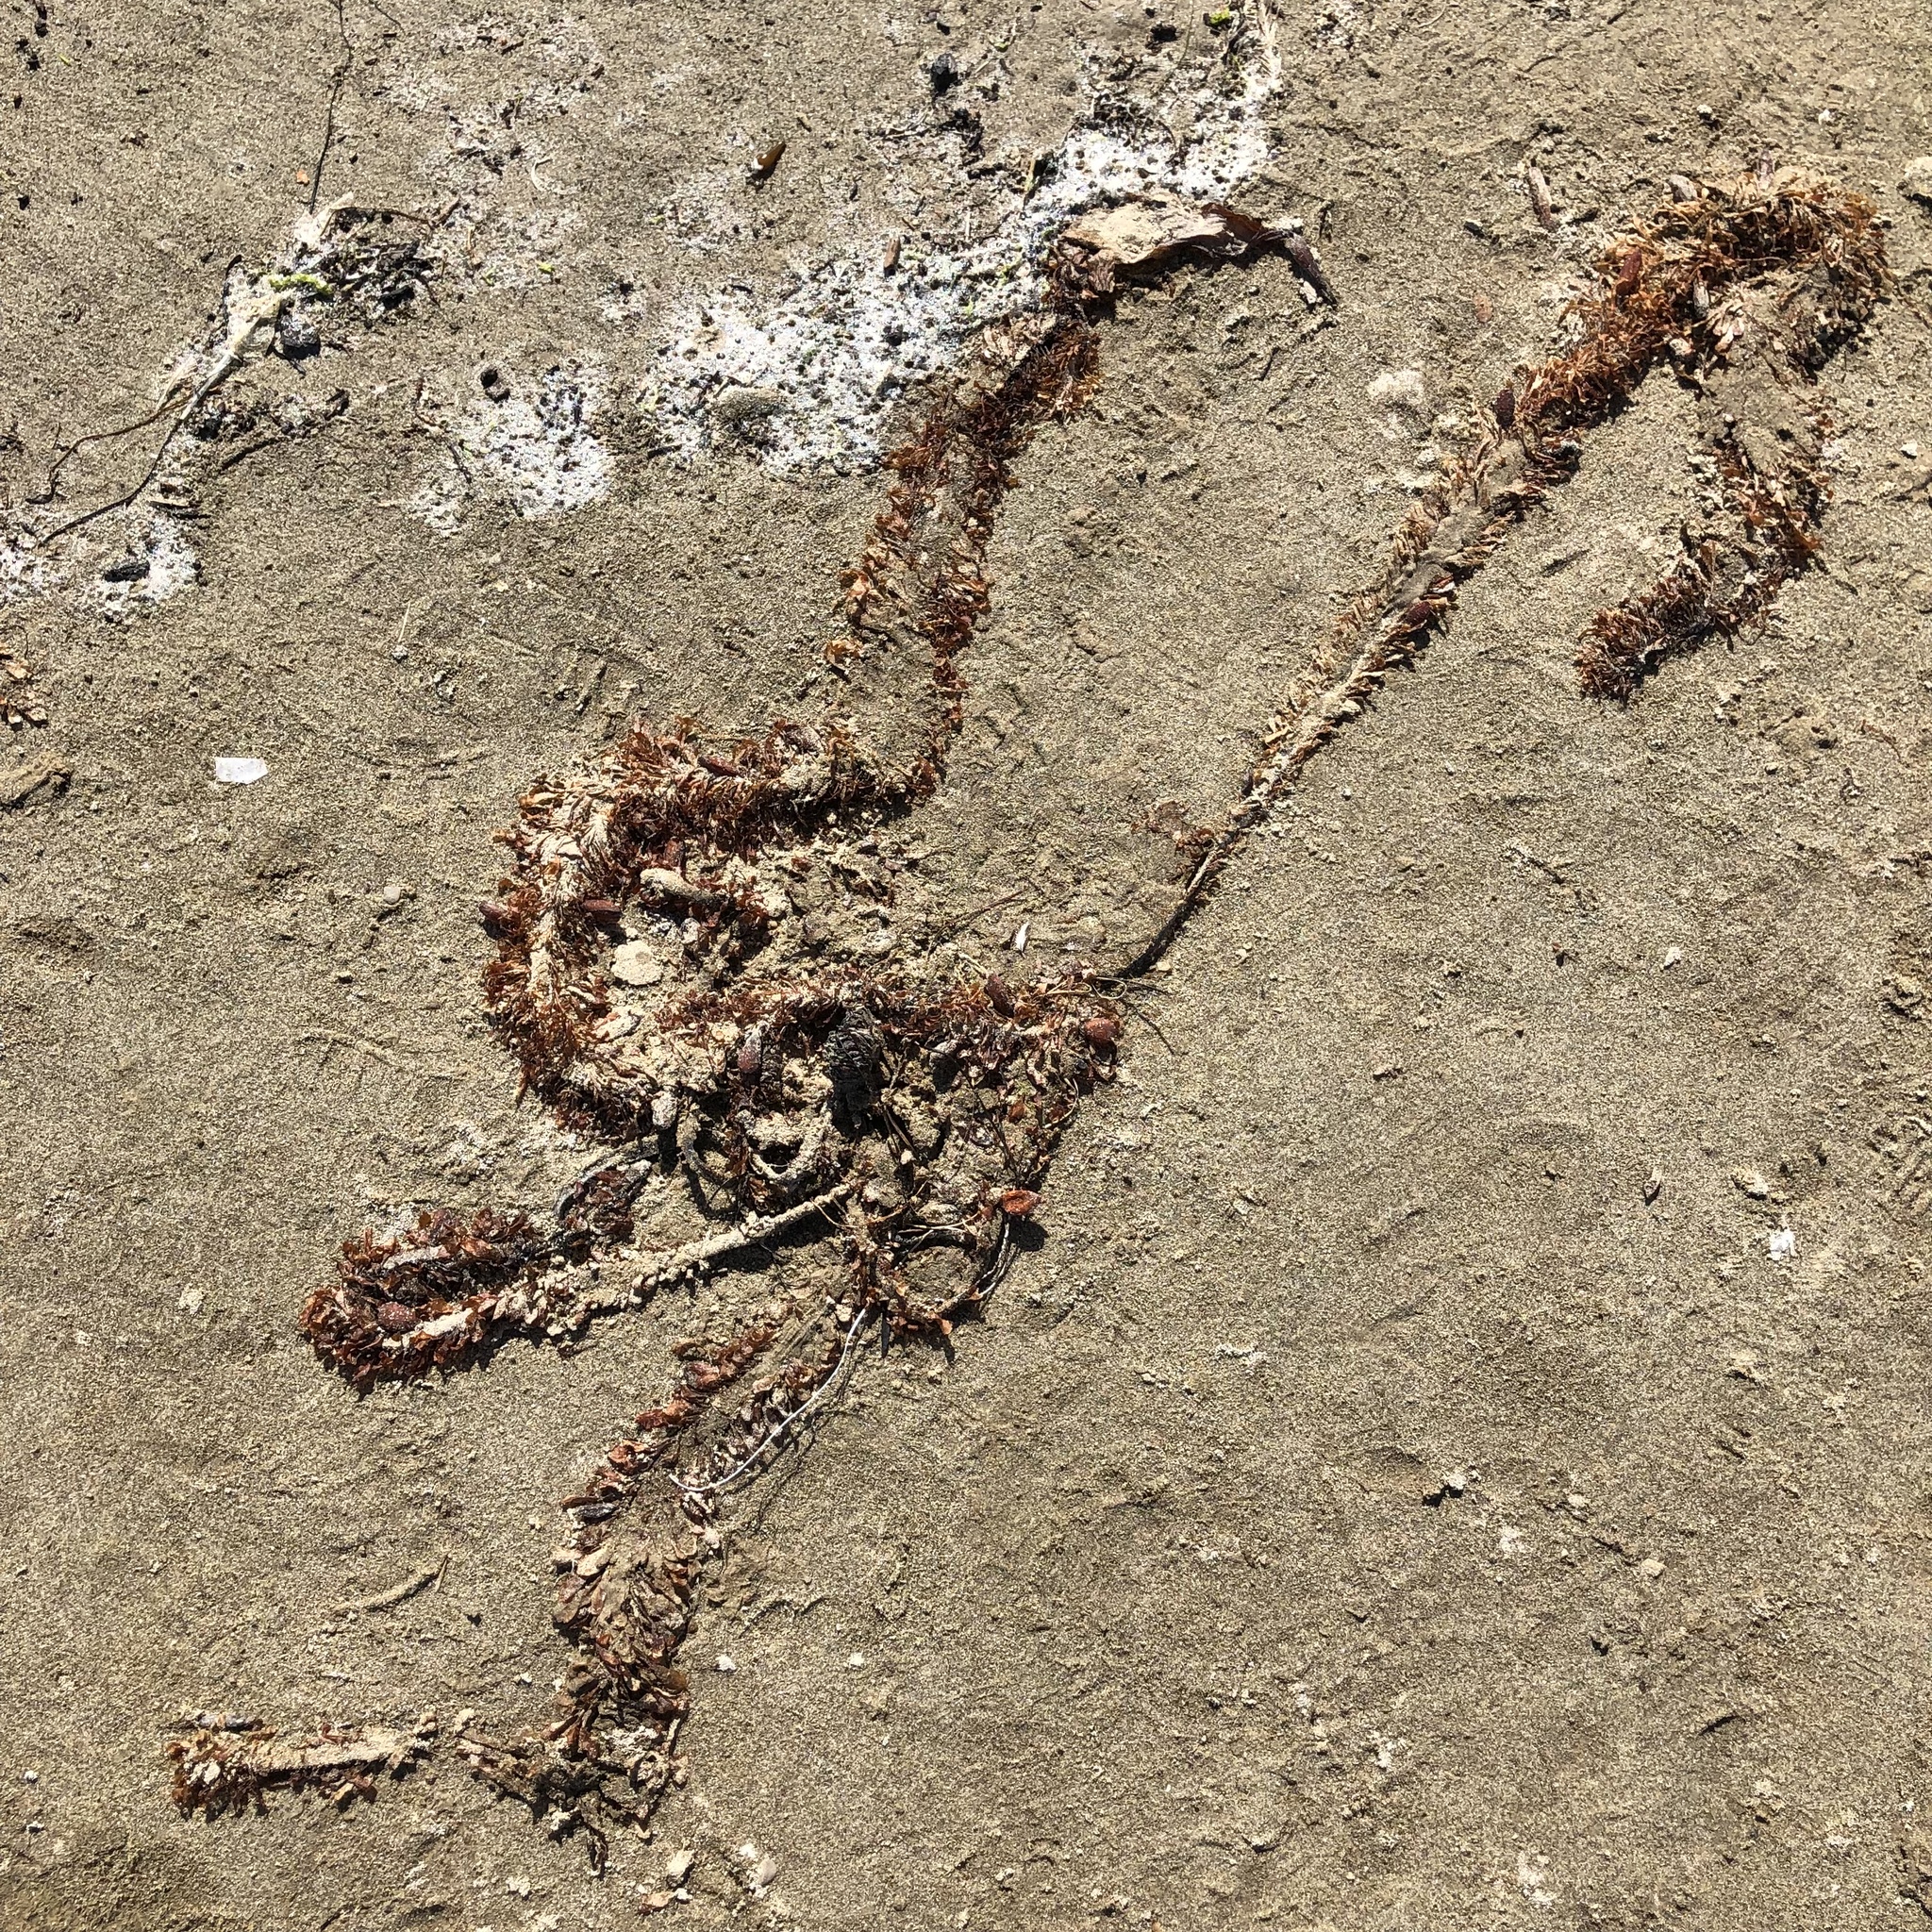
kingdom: Chromista
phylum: Ochrophyta
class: Phaeophyceae
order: Laminariales
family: Lessoniaceae
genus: Egregia
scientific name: Egregia menziesii
